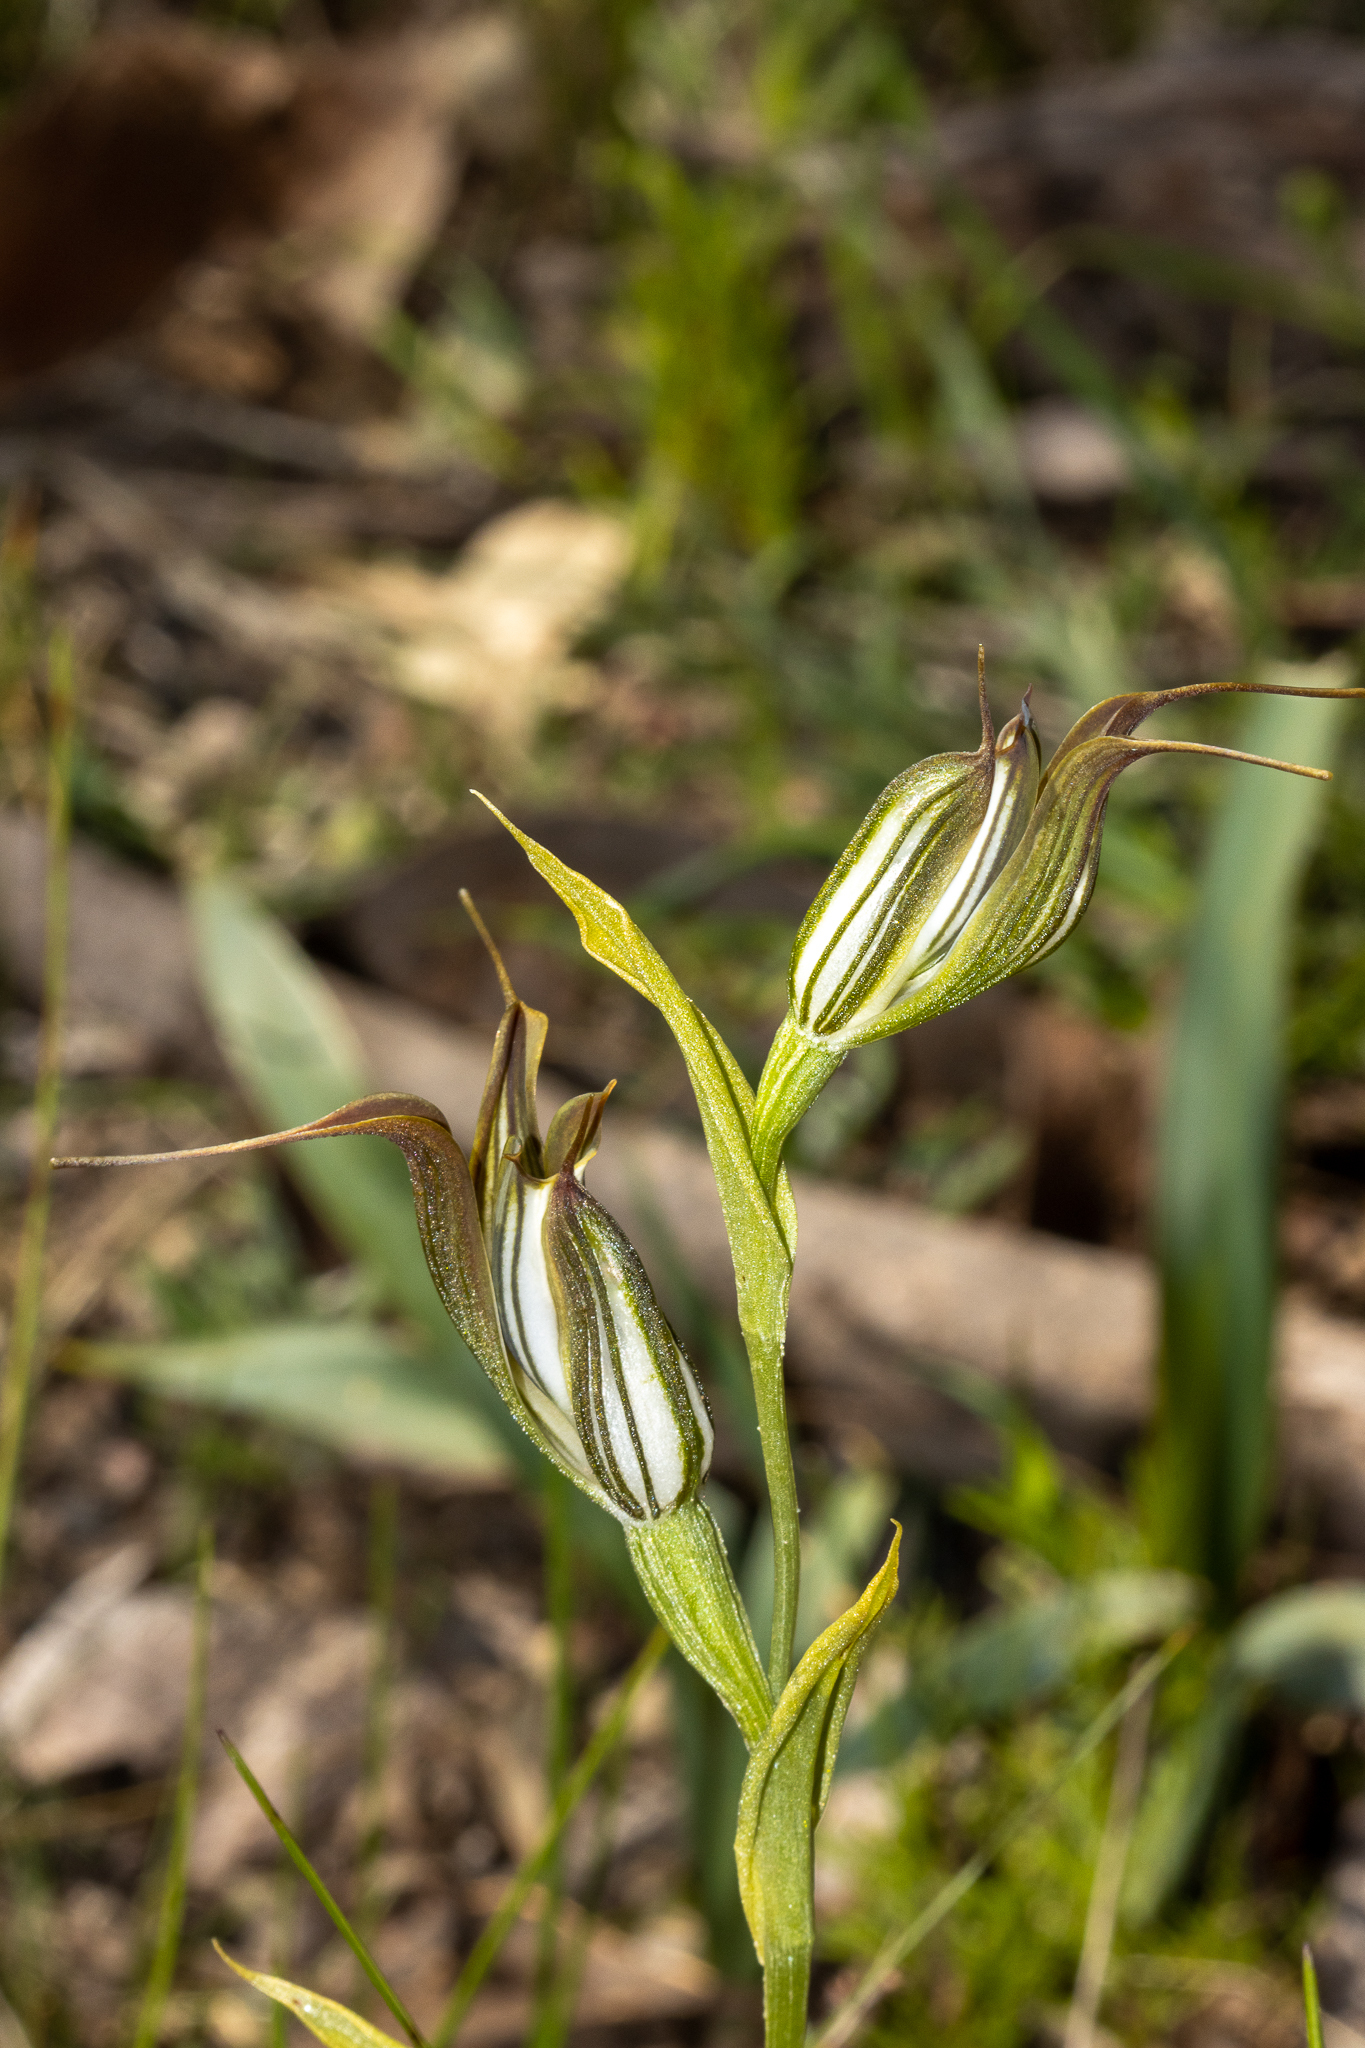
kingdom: Plantae
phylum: Tracheophyta
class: Liliopsida
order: Asparagales
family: Orchidaceae
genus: Pterostylis
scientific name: Pterostylis recurva
